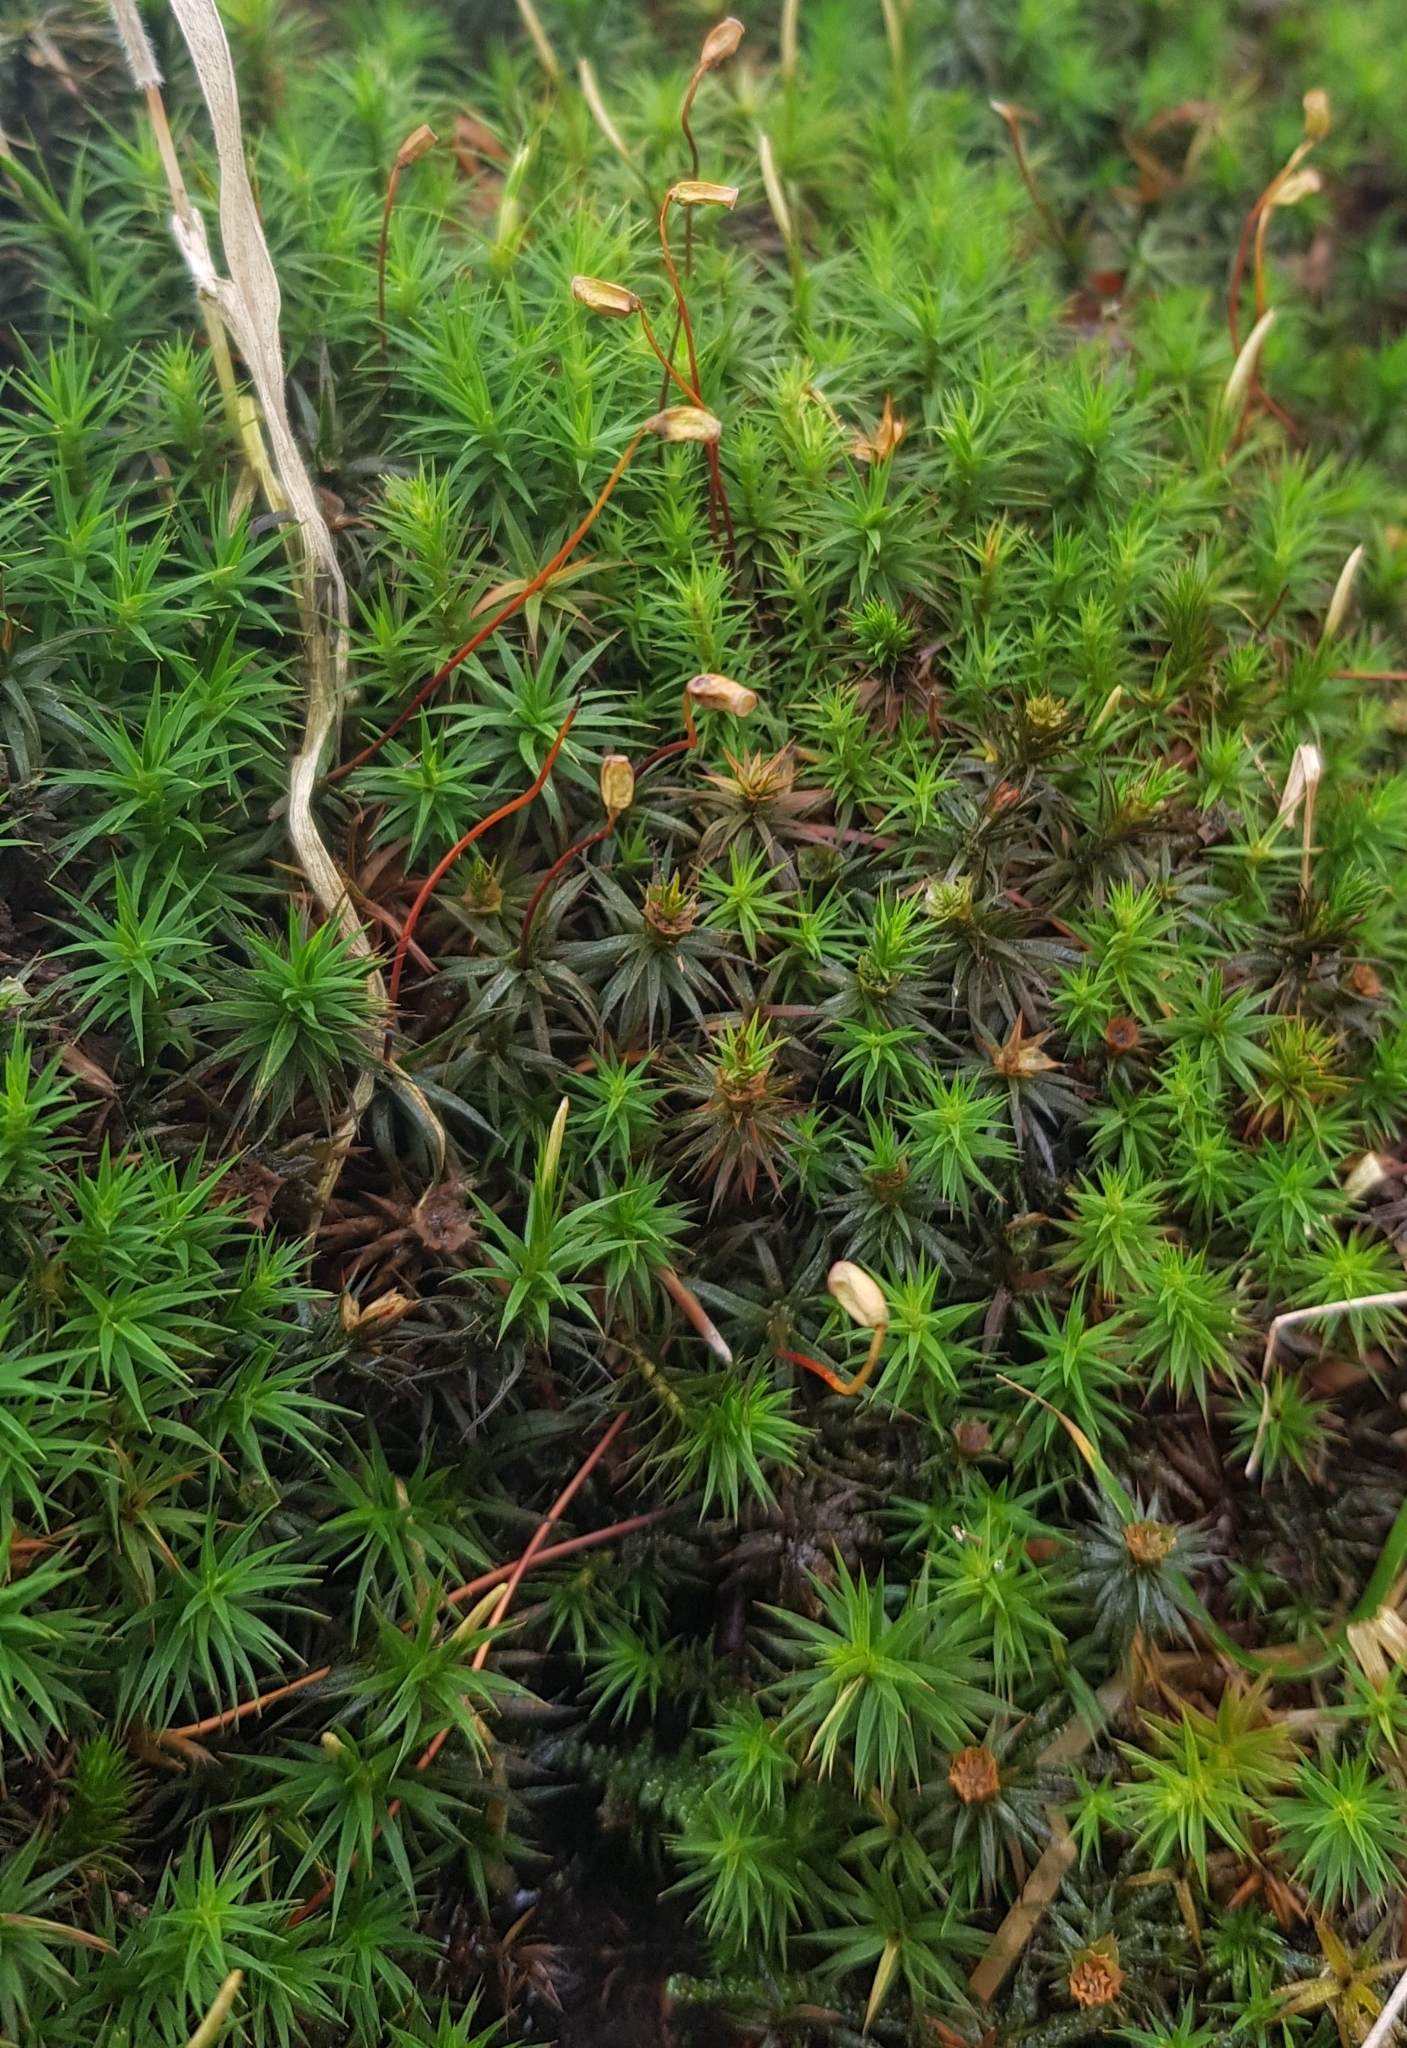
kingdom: Plantae
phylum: Bryophyta
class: Polytrichopsida
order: Polytrichales
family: Polytrichaceae
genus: Polytrichum
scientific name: Polytrichum formosum
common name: Bank haircap moss
